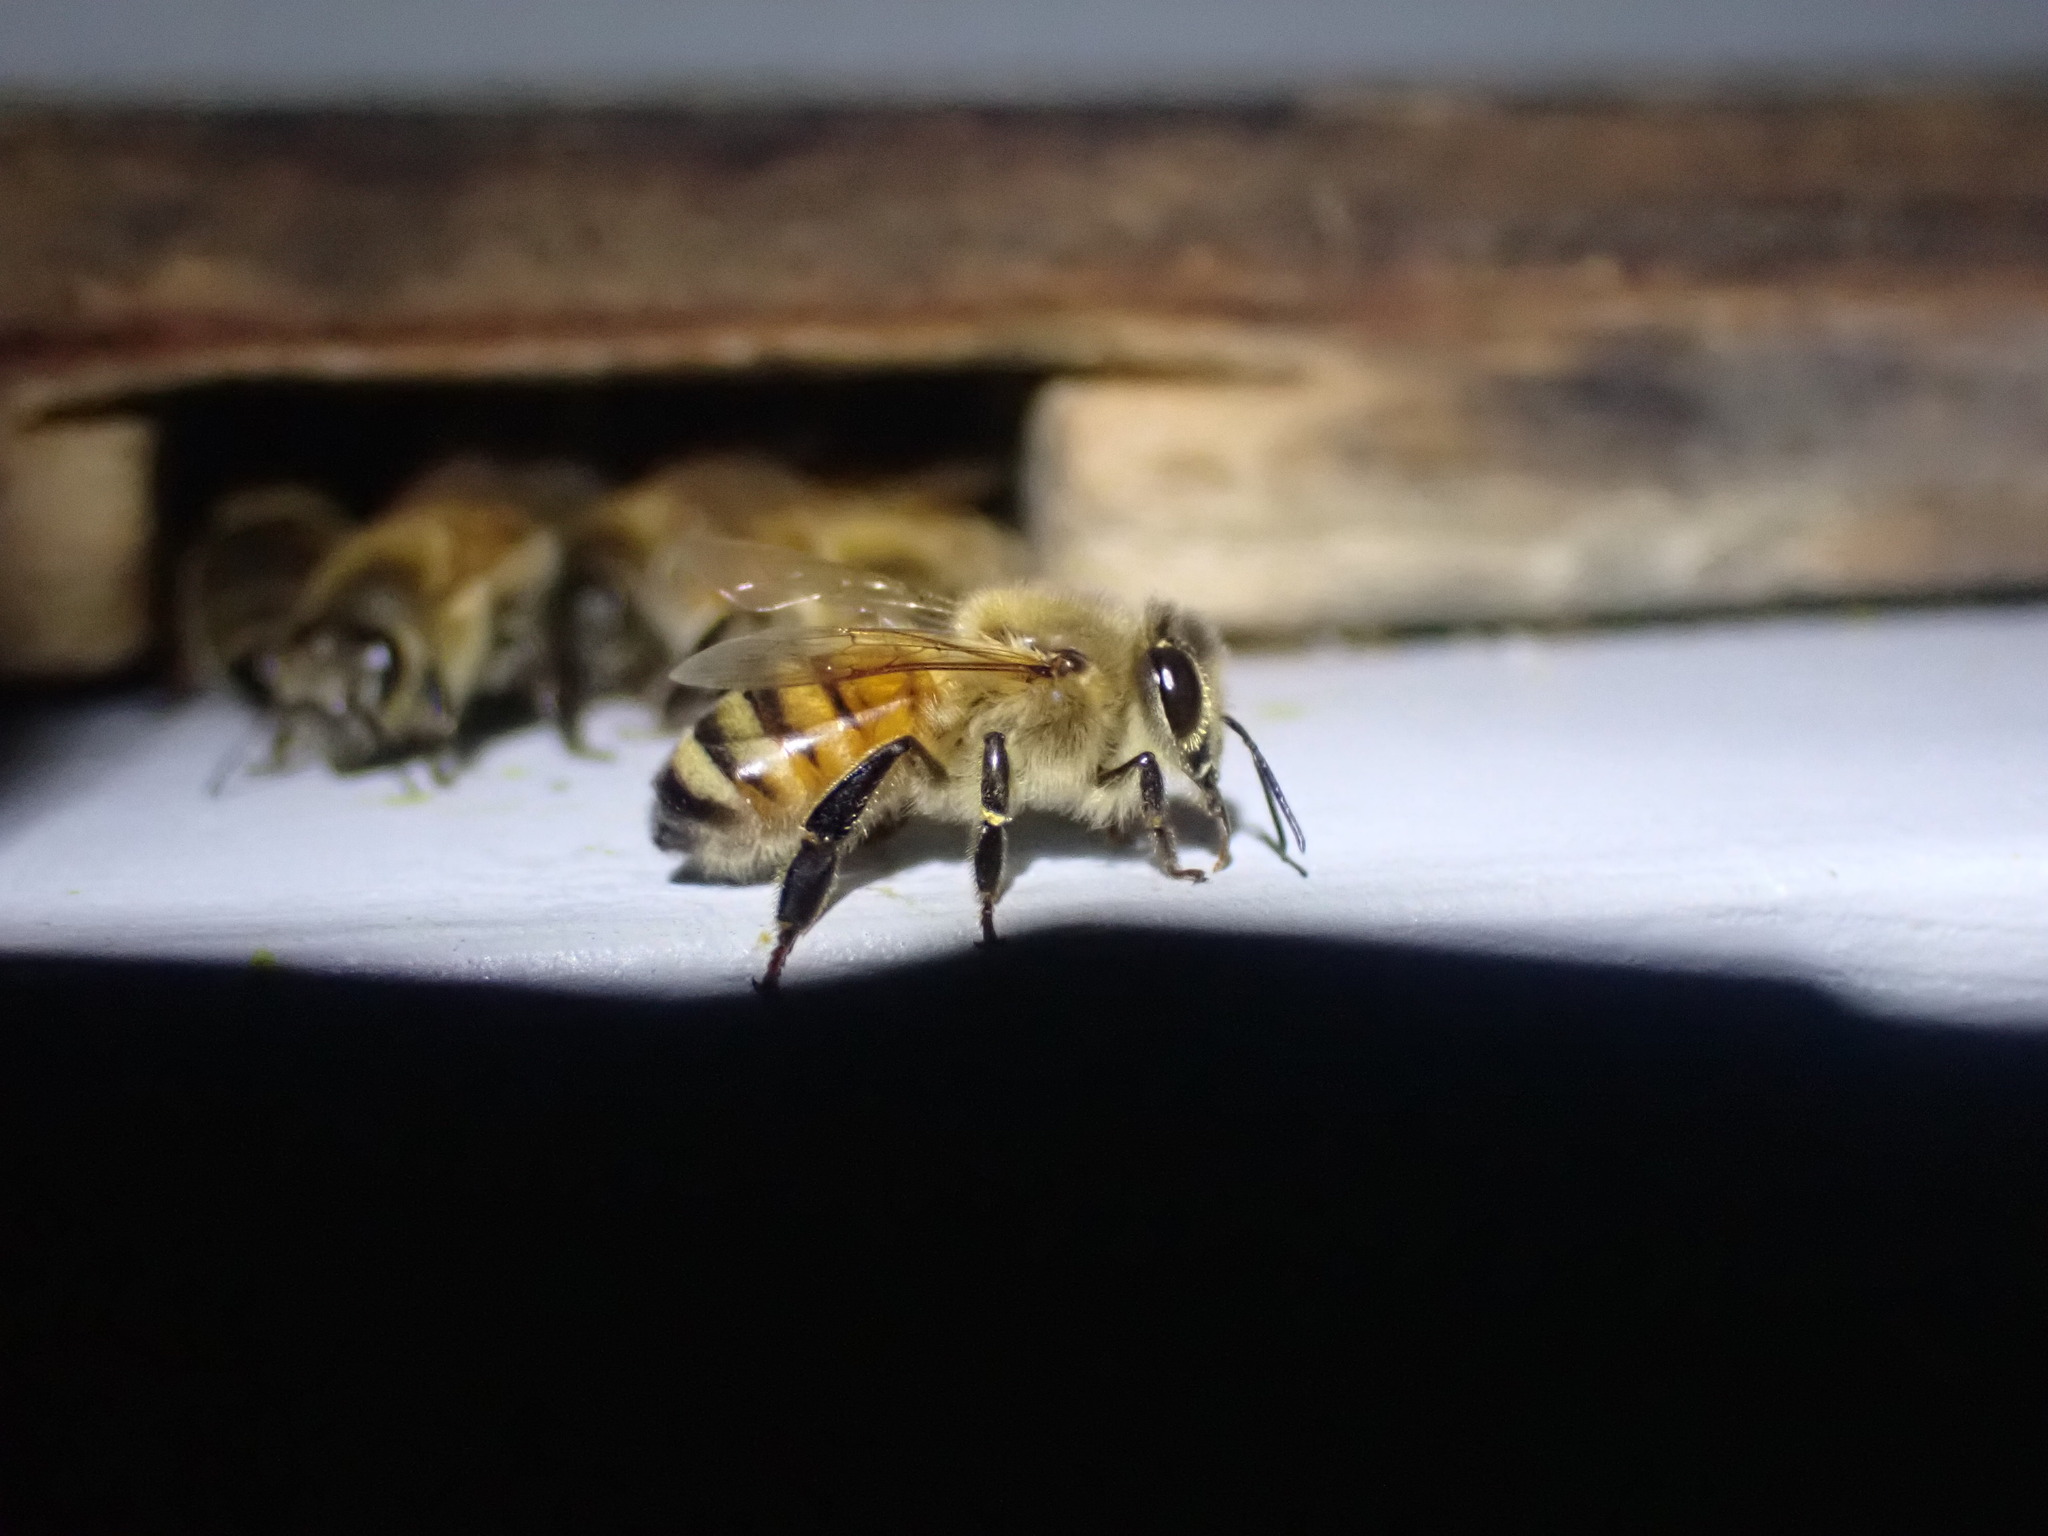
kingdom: Animalia
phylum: Arthropoda
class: Insecta
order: Hymenoptera
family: Apidae
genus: Apis
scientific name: Apis mellifera
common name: Honey bee
